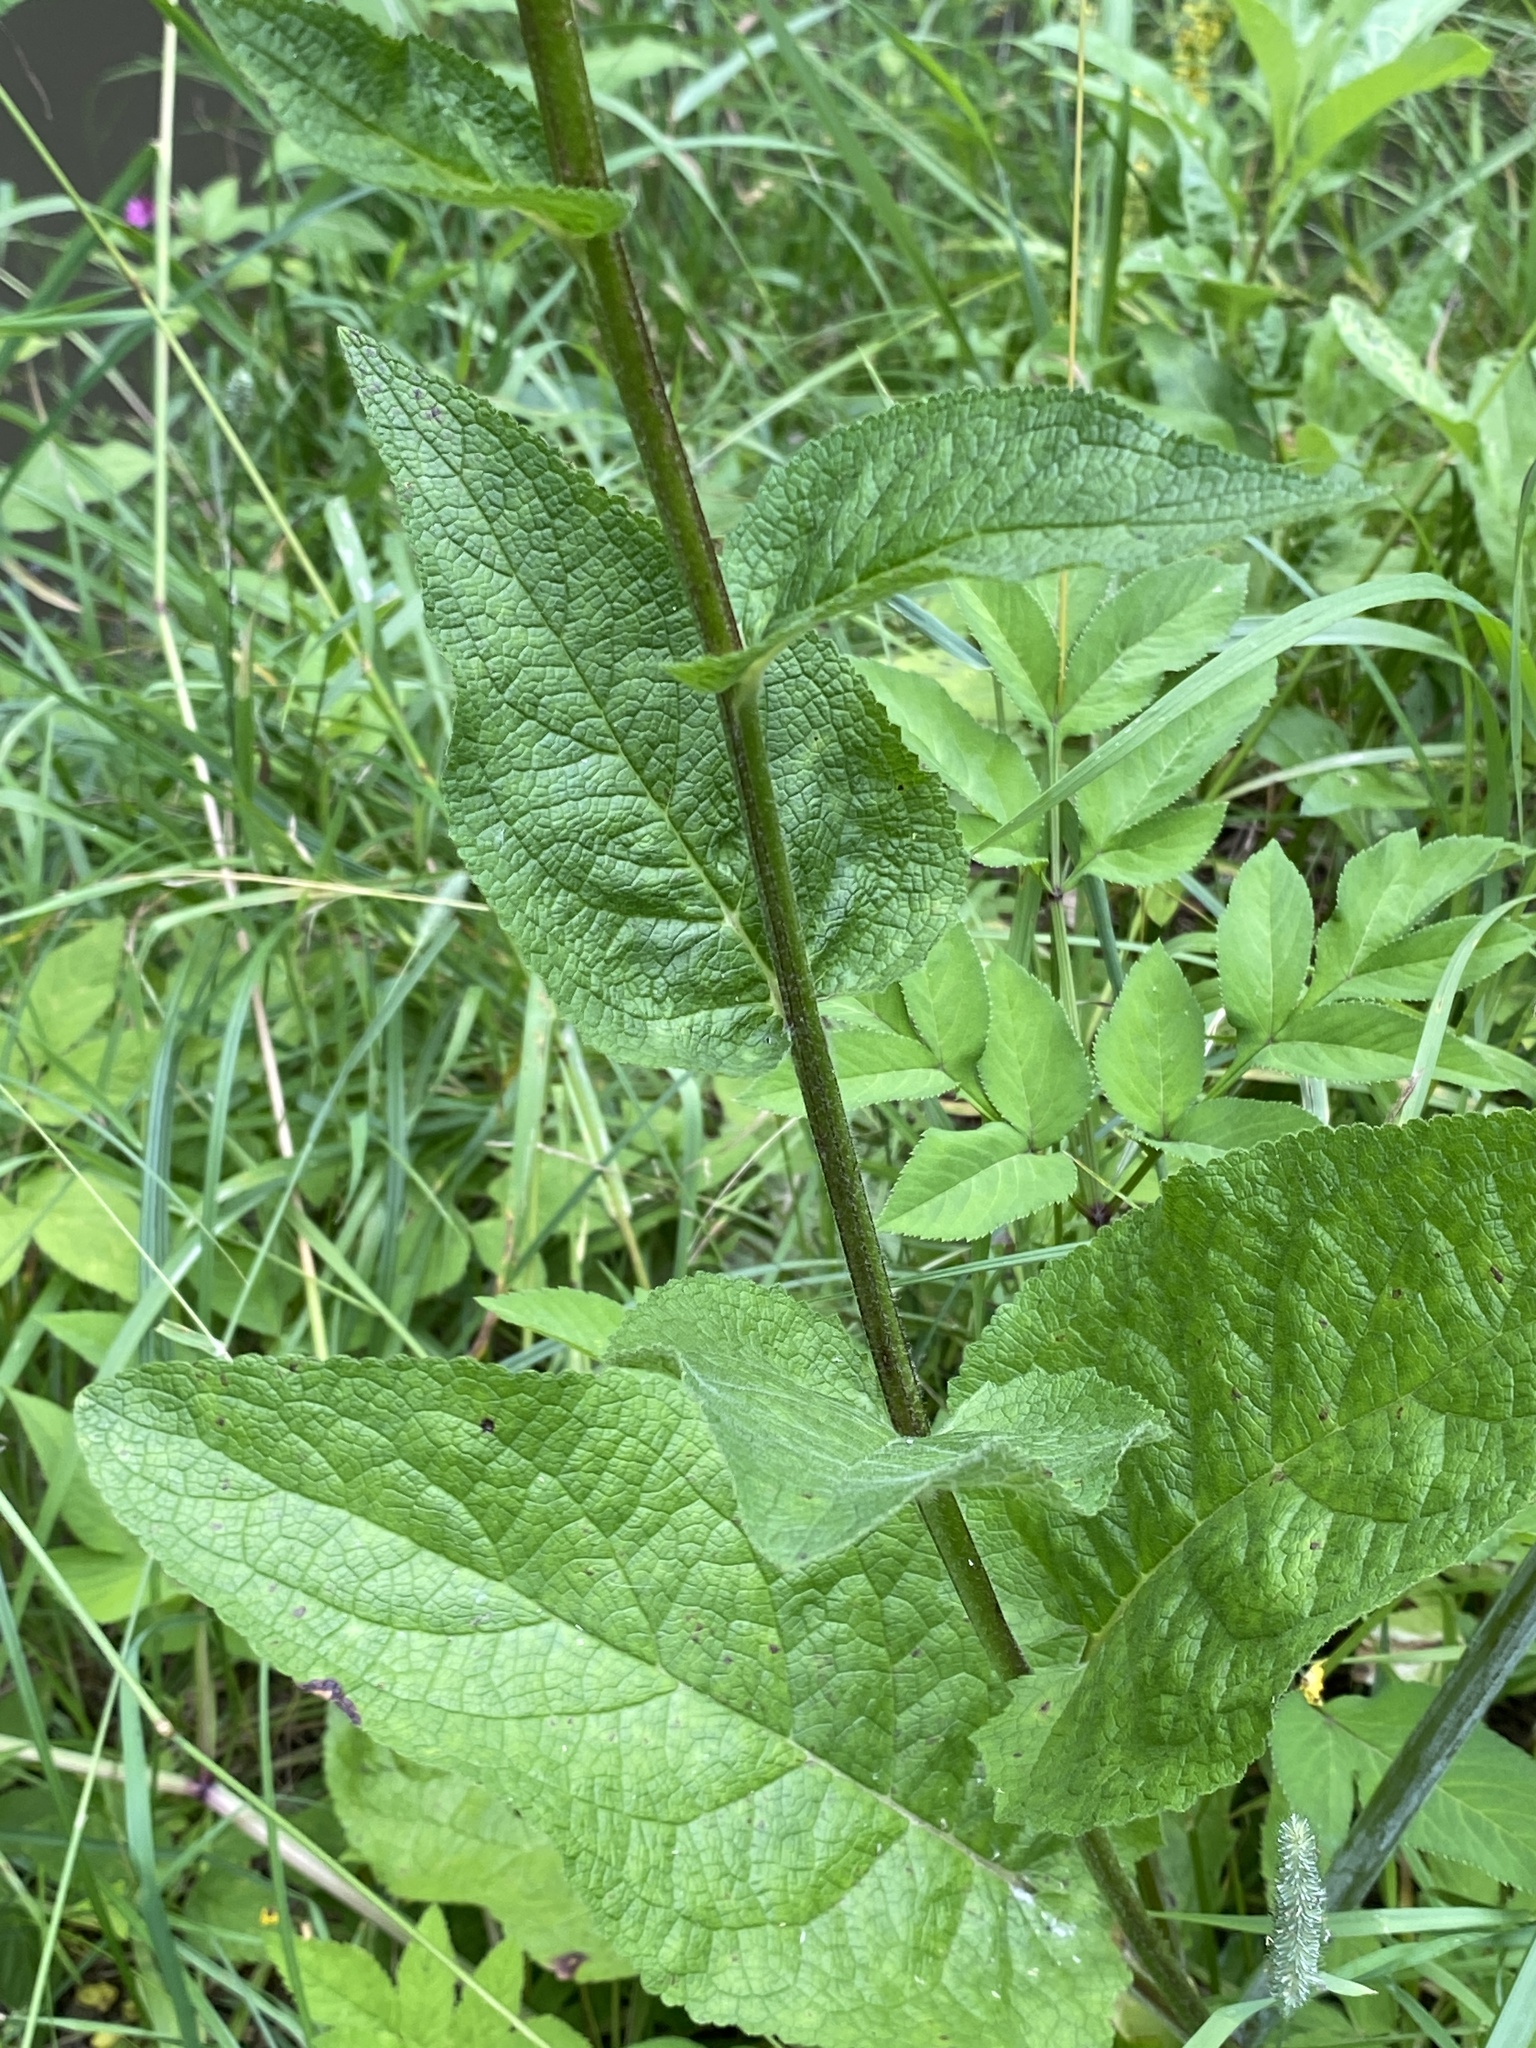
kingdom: Plantae
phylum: Tracheophyta
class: Magnoliopsida
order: Lamiales
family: Scrophulariaceae
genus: Verbascum
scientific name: Verbascum nigrum
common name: Dark mullein
